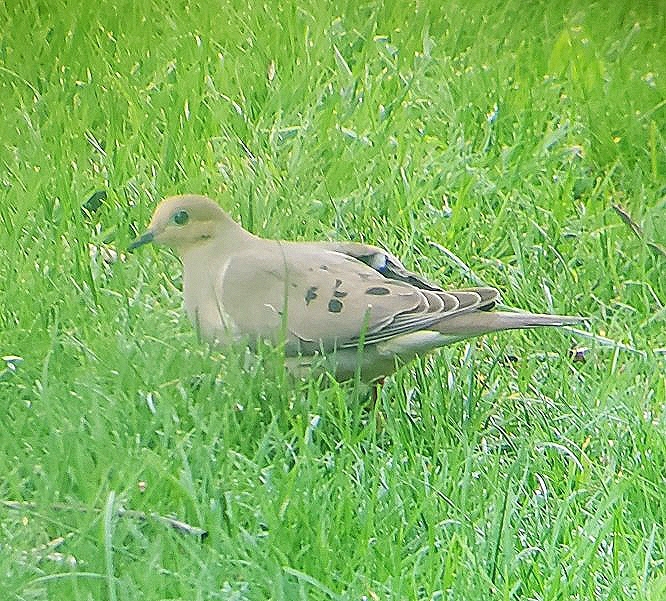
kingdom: Animalia
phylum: Chordata
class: Aves
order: Columbiformes
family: Columbidae
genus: Zenaida
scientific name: Zenaida macroura
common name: Mourning dove
